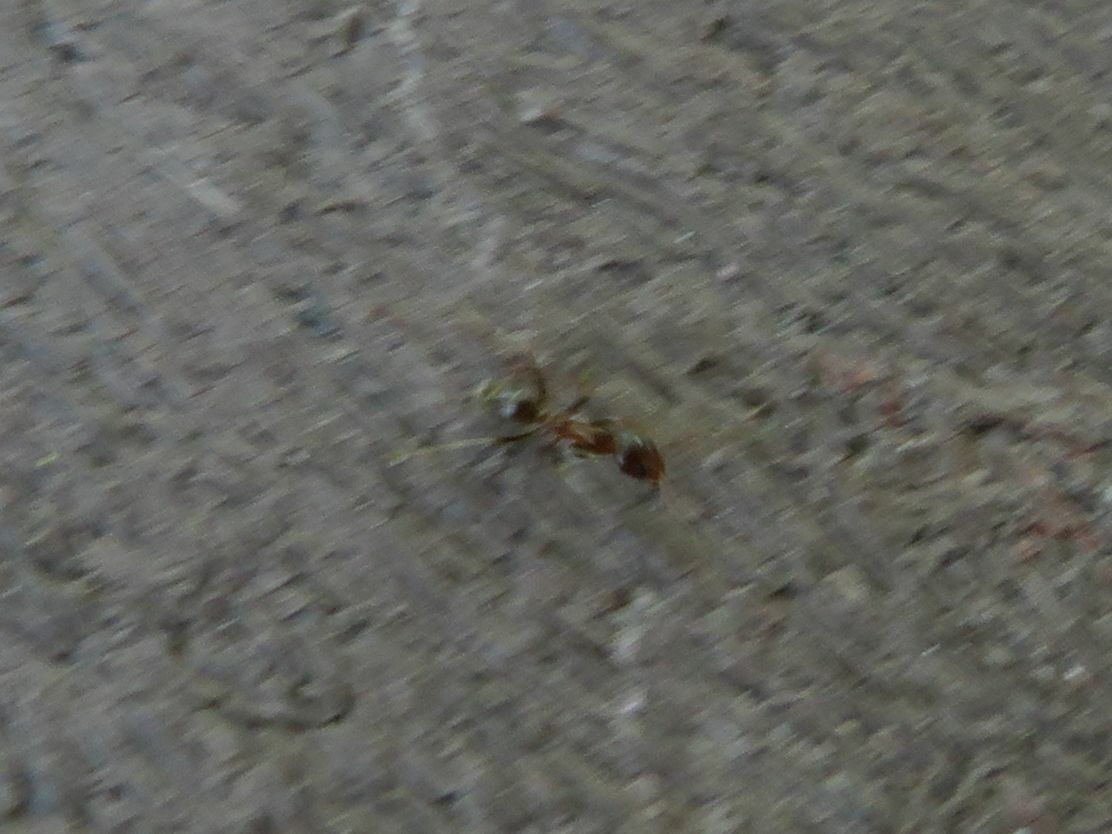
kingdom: Animalia
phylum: Arthropoda
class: Insecta
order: Hymenoptera
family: Formicidae
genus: Linepithema
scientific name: Linepithema humile
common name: Argentine ant
